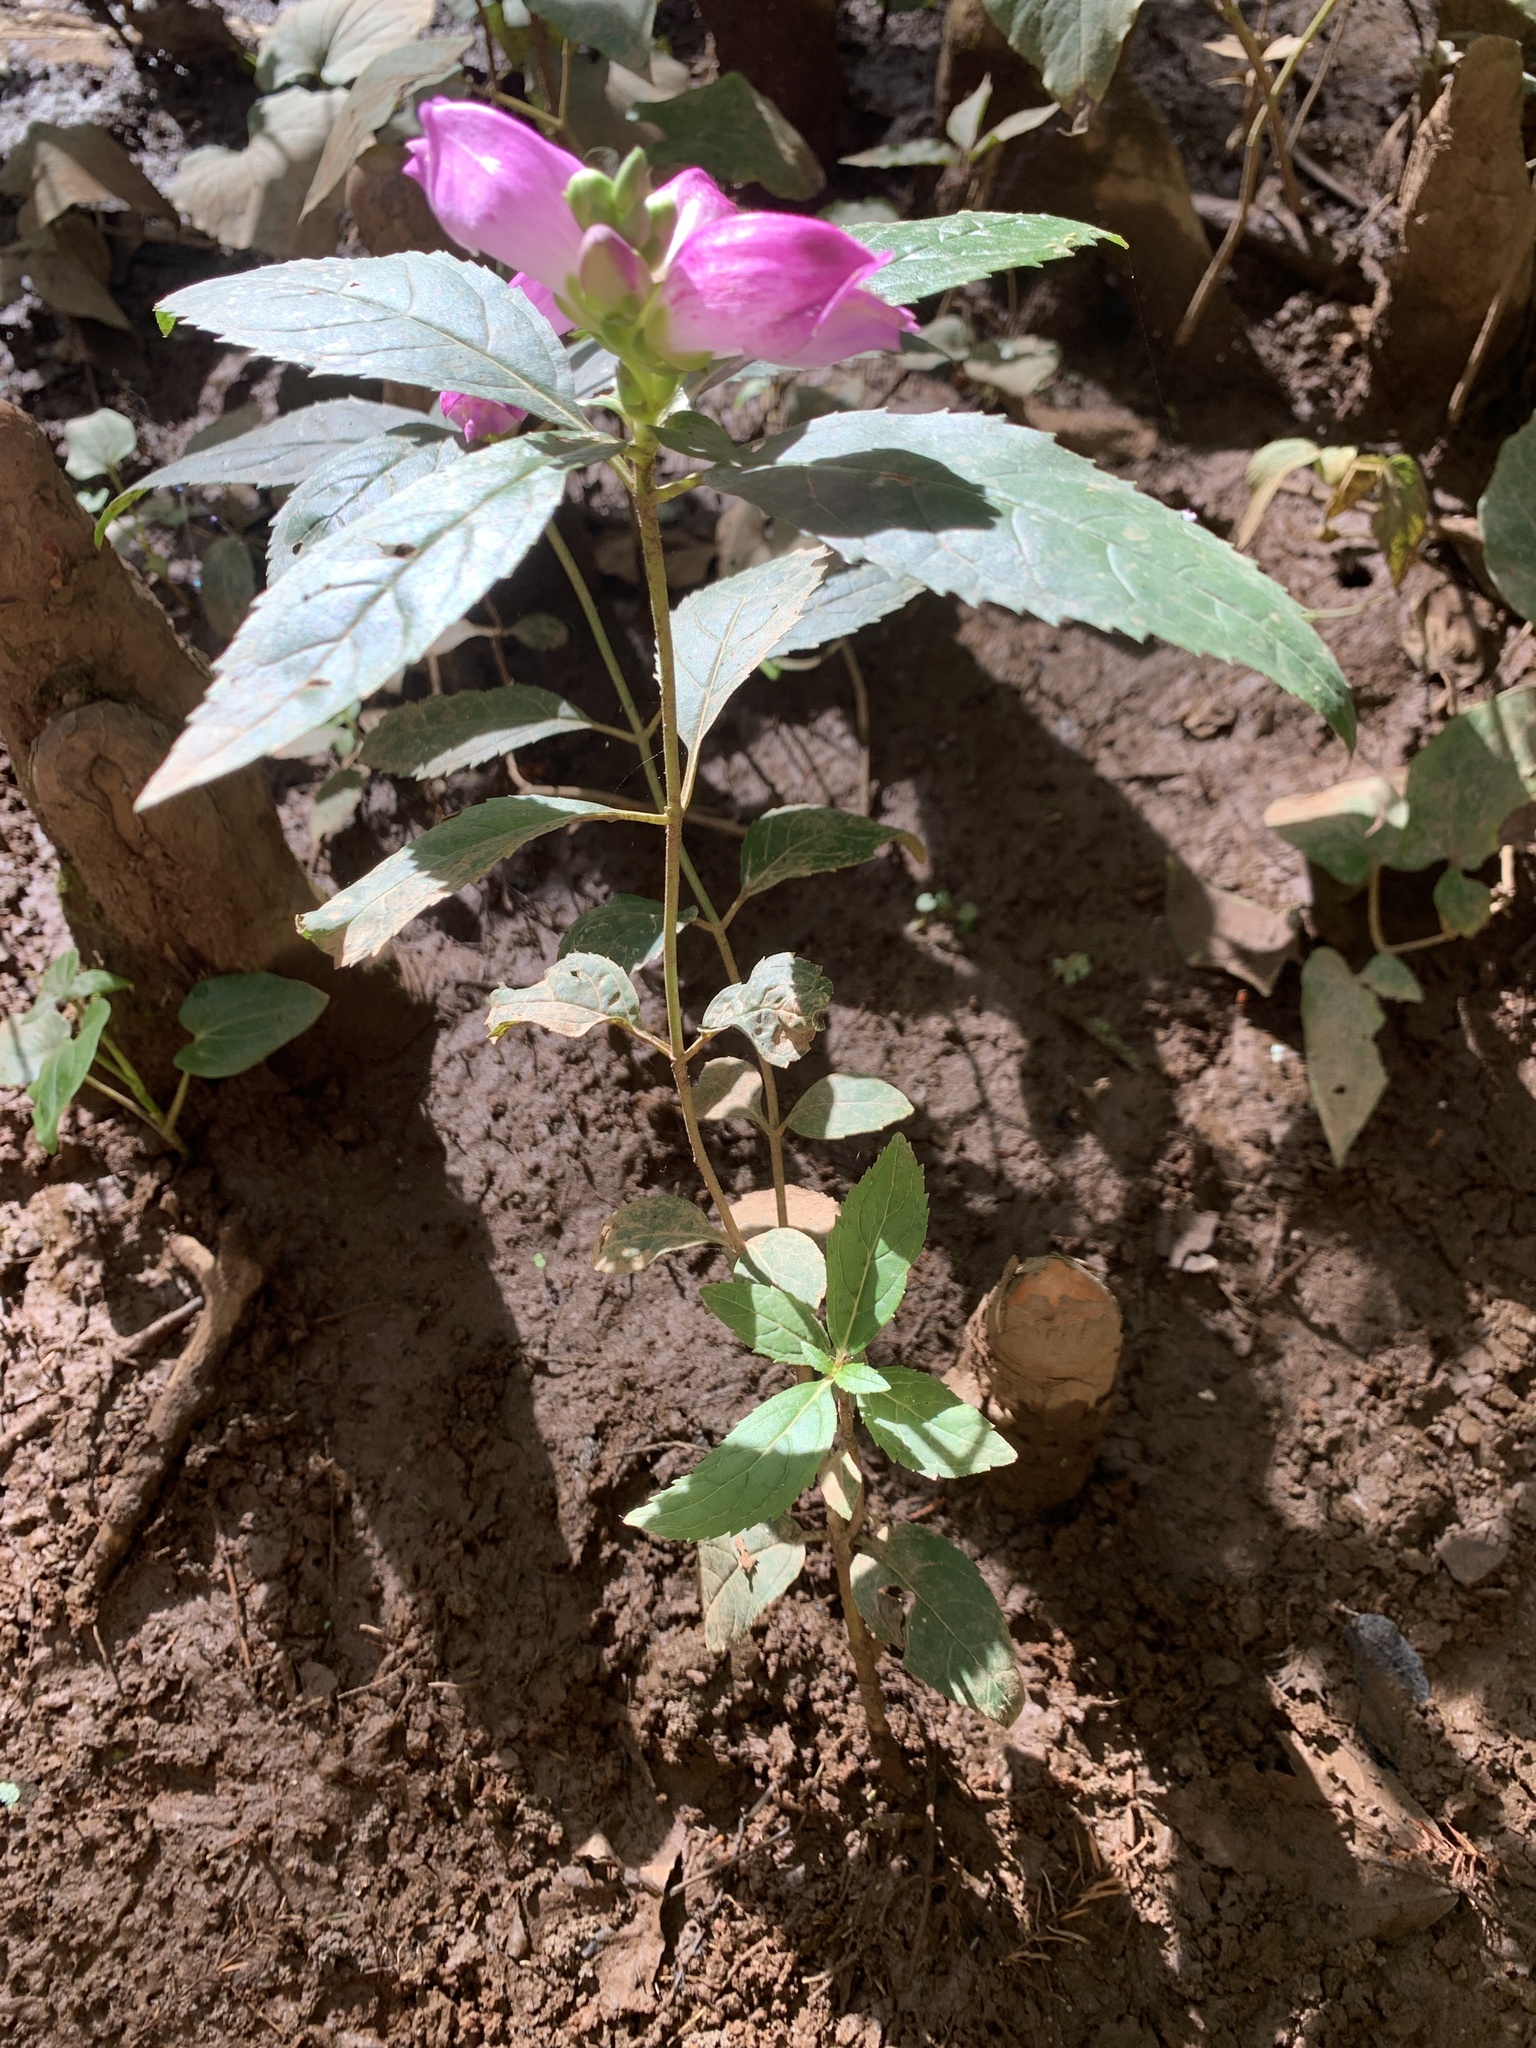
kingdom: Plantae
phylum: Tracheophyta
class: Magnoliopsida
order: Lamiales
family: Plantaginaceae
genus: Chelone
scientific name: Chelone obliqua
